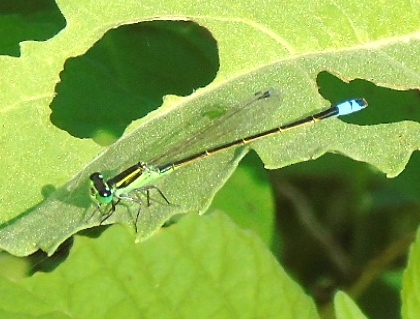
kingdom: Animalia
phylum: Arthropoda
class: Insecta
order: Odonata
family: Coenagrionidae
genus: Ischnura
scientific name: Ischnura ramburii
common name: Rambur's forktail
